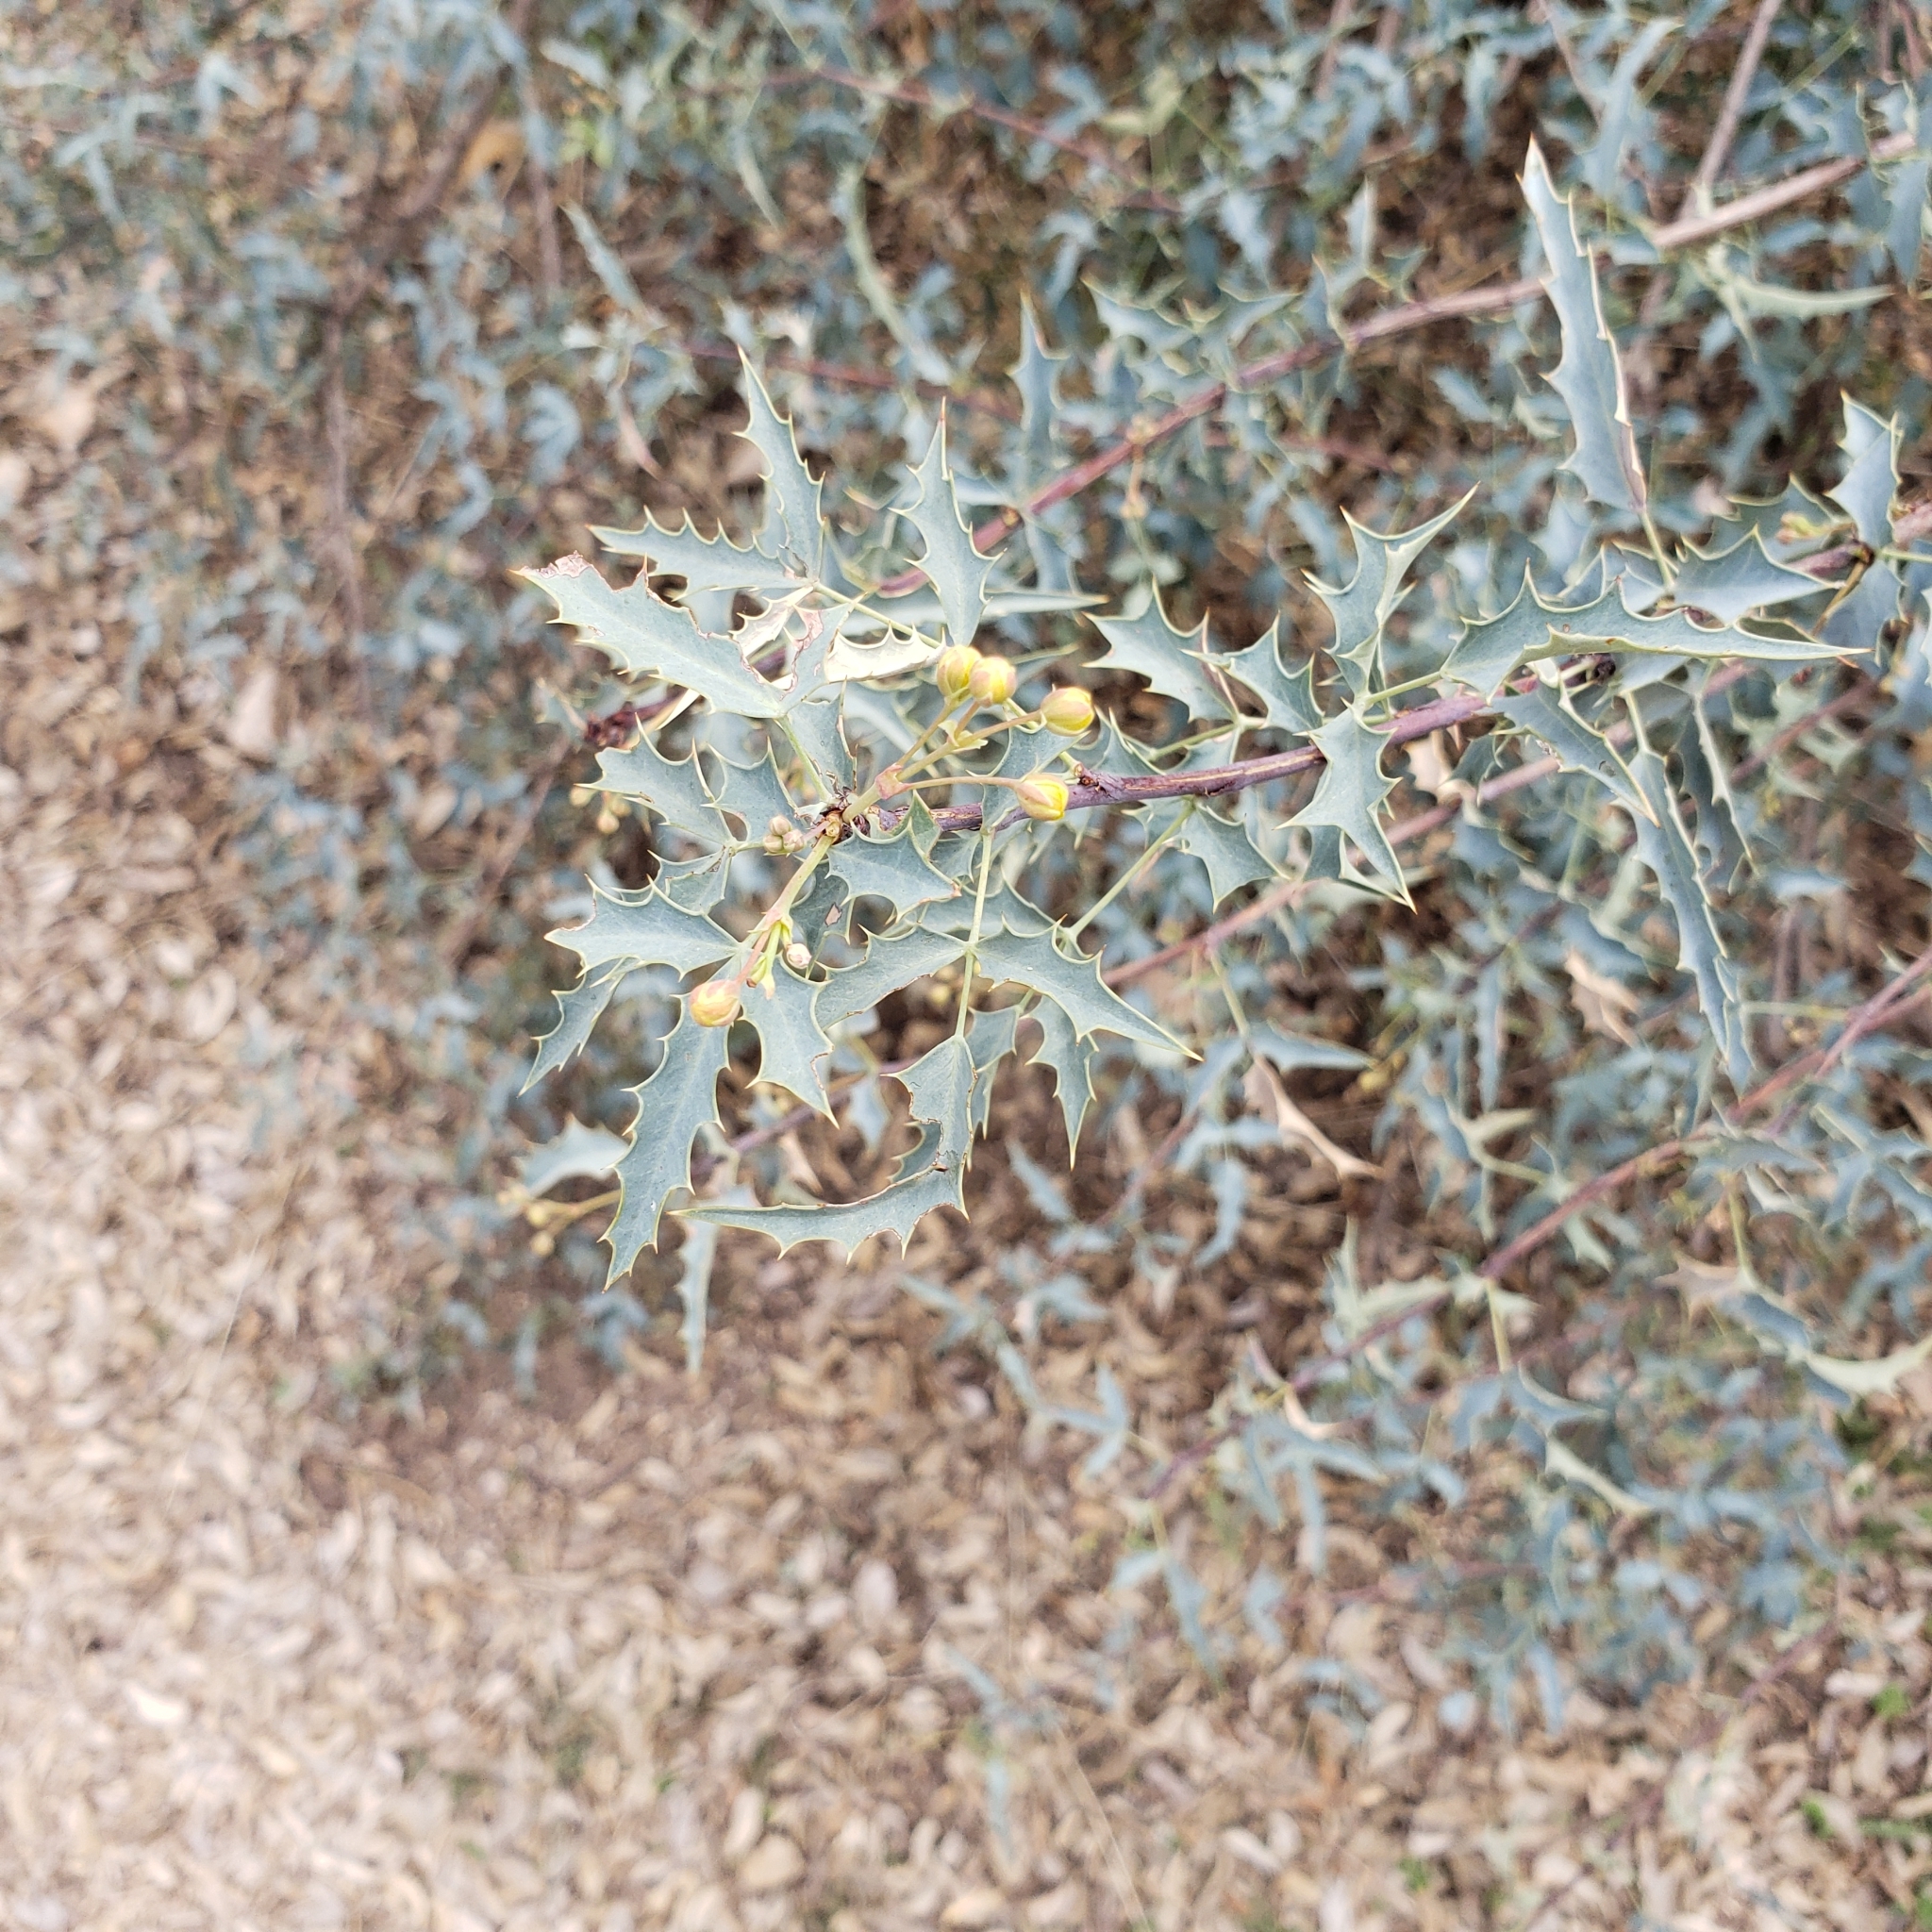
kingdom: Plantae
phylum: Tracheophyta
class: Magnoliopsida
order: Ranunculales
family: Berberidaceae
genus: Alloberberis
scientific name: Alloberberis haematocarpa
